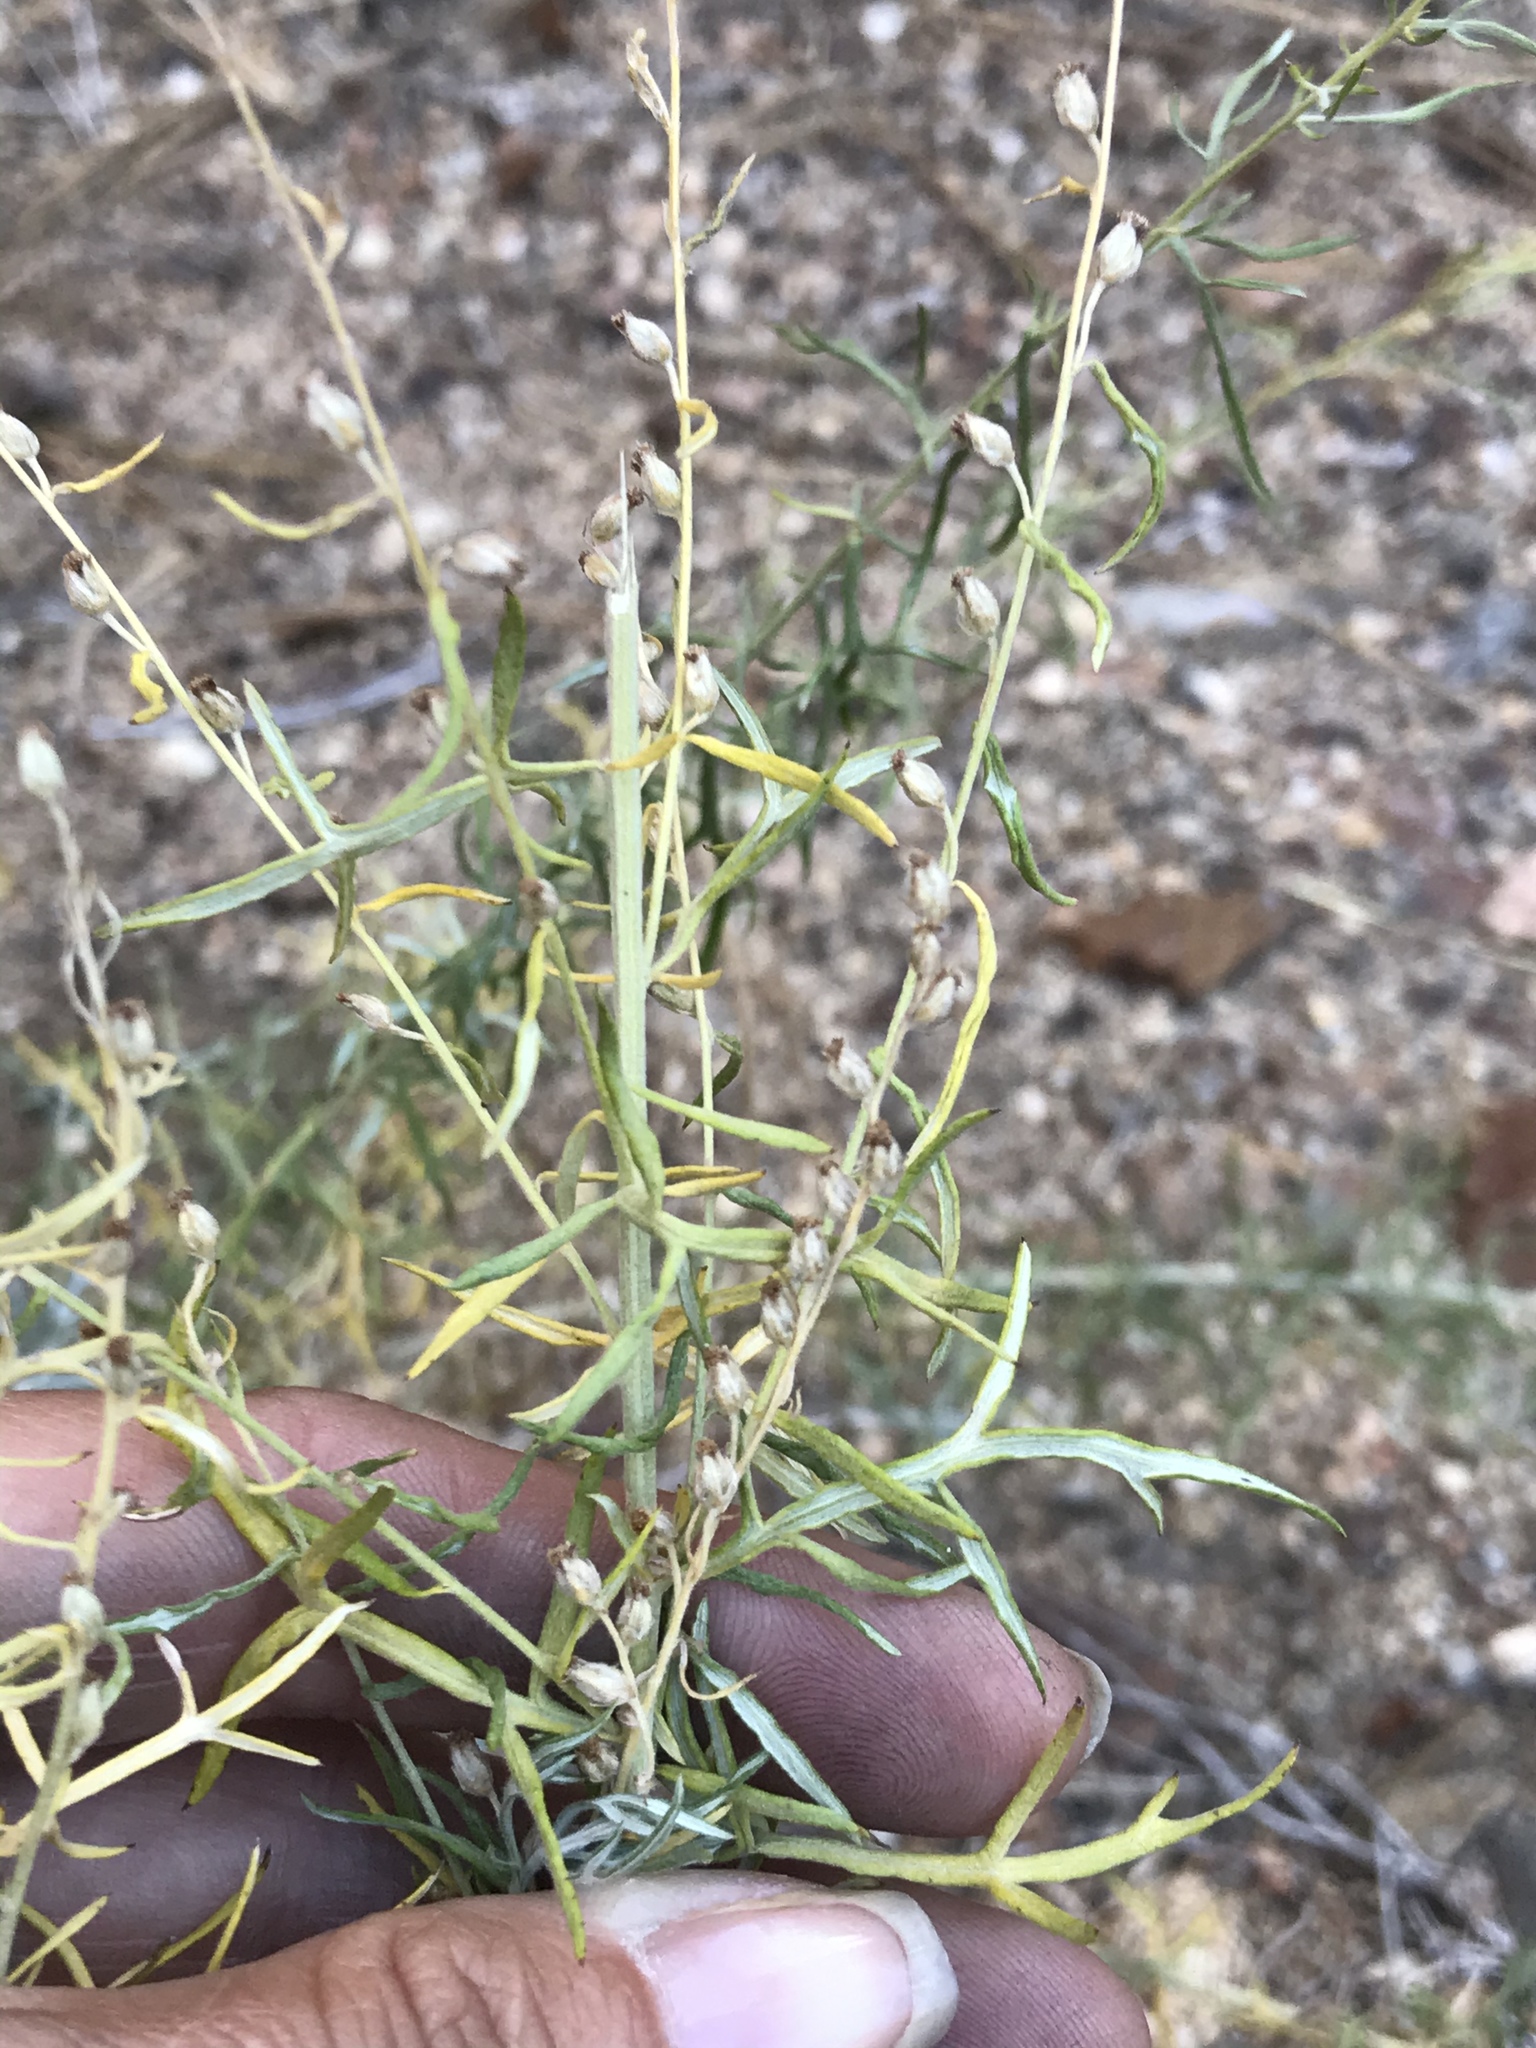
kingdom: Plantae
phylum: Tracheophyta
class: Magnoliopsida
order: Asterales
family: Asteraceae
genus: Artemisia
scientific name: Artemisia ludoviciana
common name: Western mugwort
